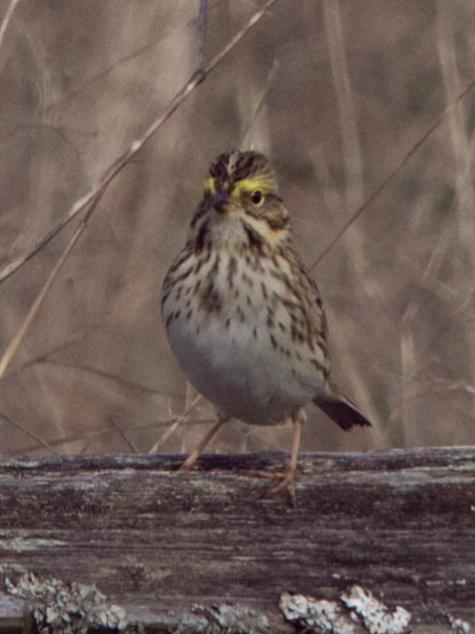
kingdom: Animalia
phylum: Chordata
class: Aves
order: Passeriformes
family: Passerellidae
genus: Passerculus
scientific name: Passerculus sandwichensis
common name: Savannah sparrow
